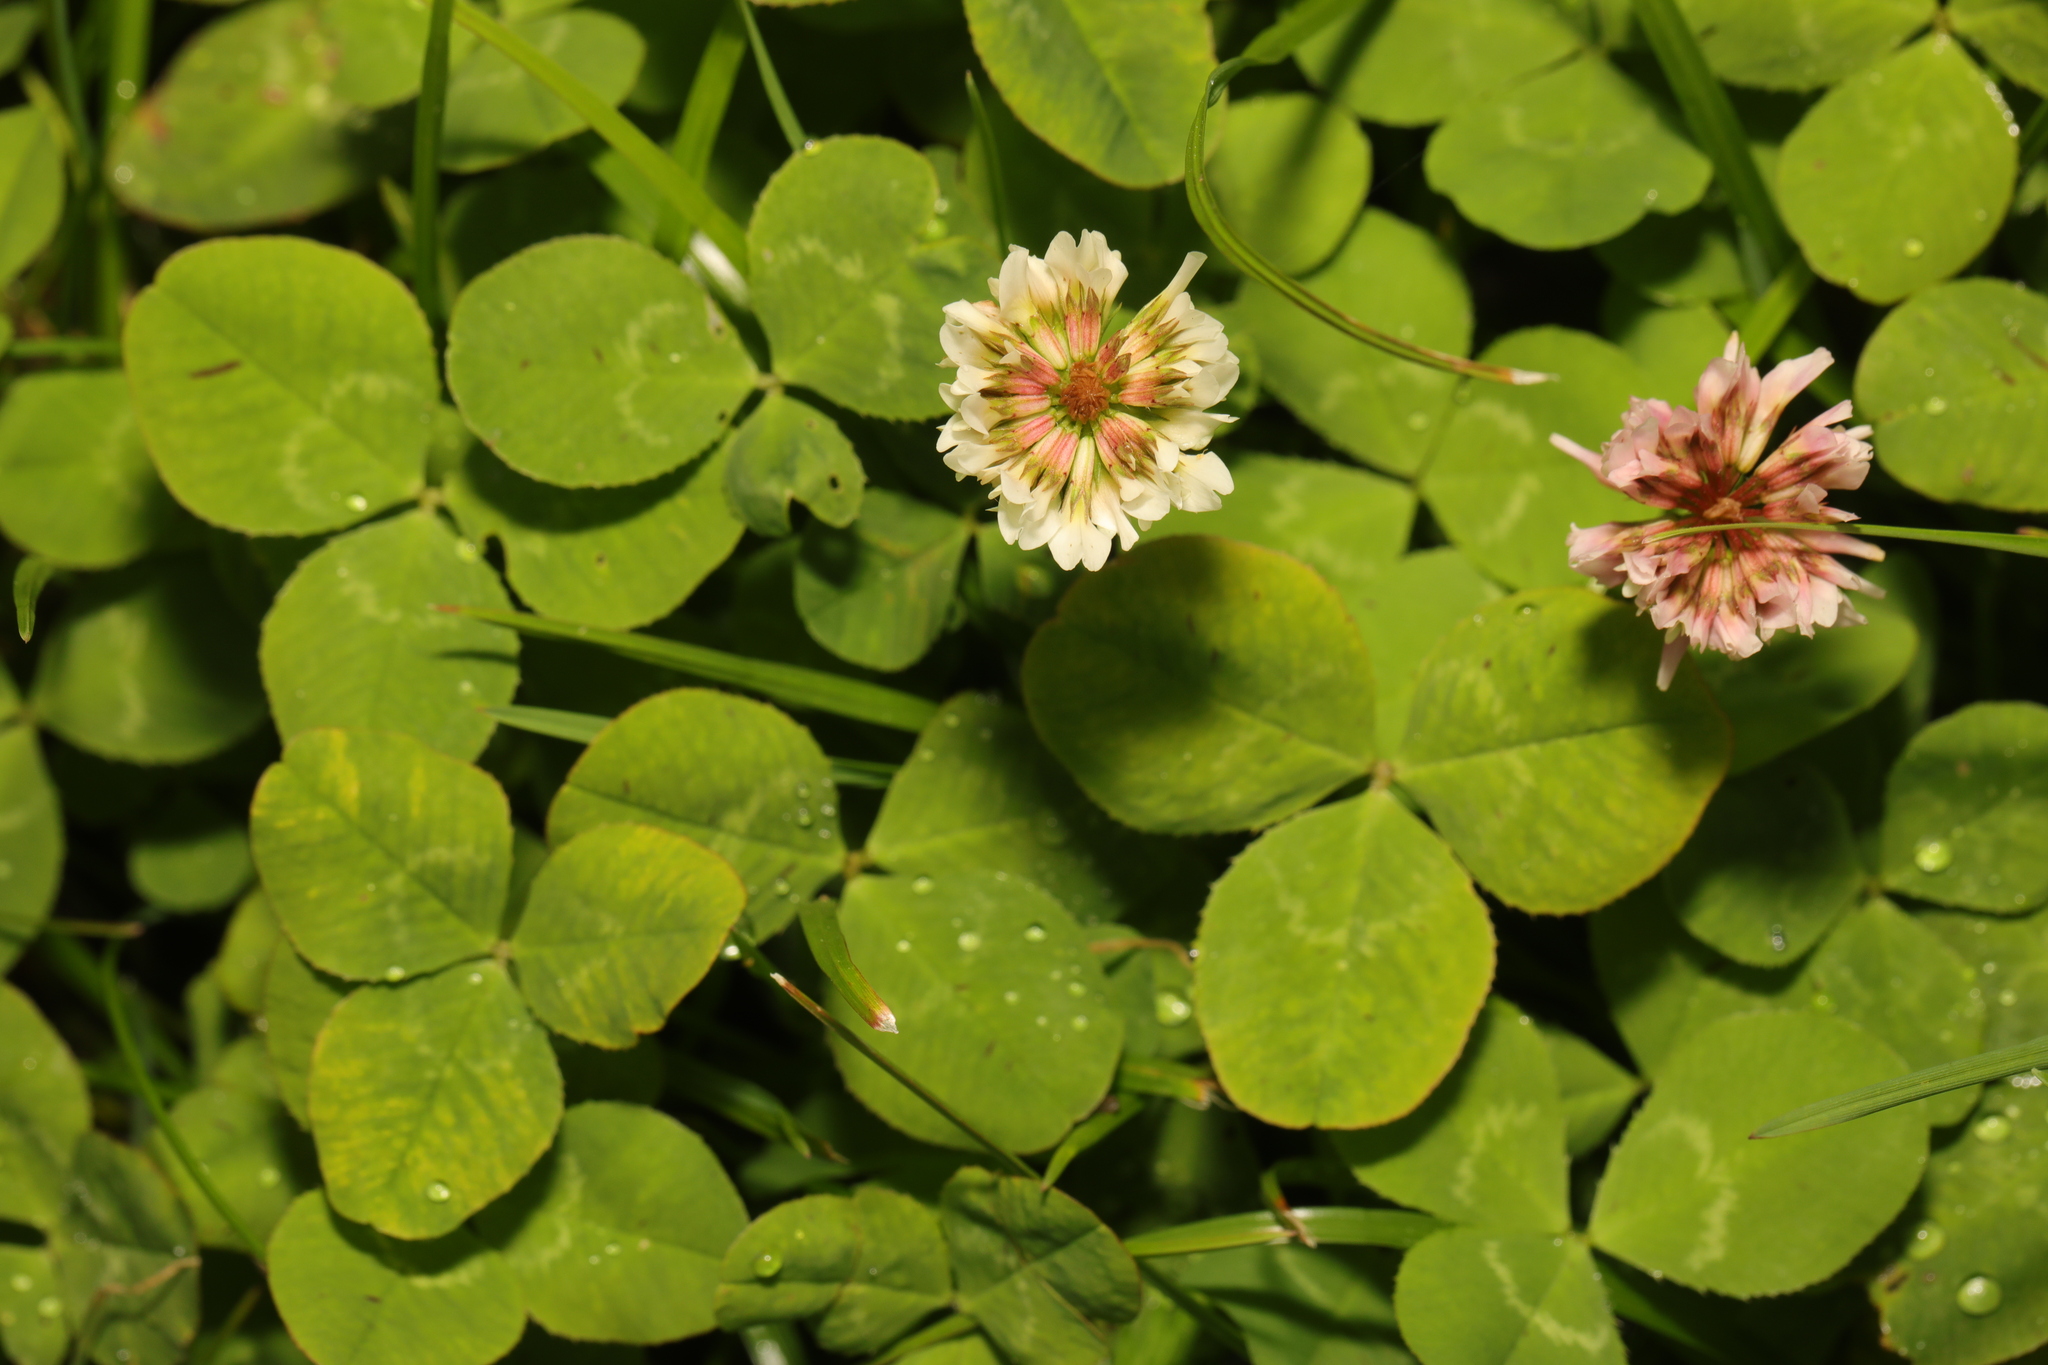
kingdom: Plantae
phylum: Tracheophyta
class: Magnoliopsida
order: Fabales
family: Fabaceae
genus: Trifolium
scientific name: Trifolium repens
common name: White clover
